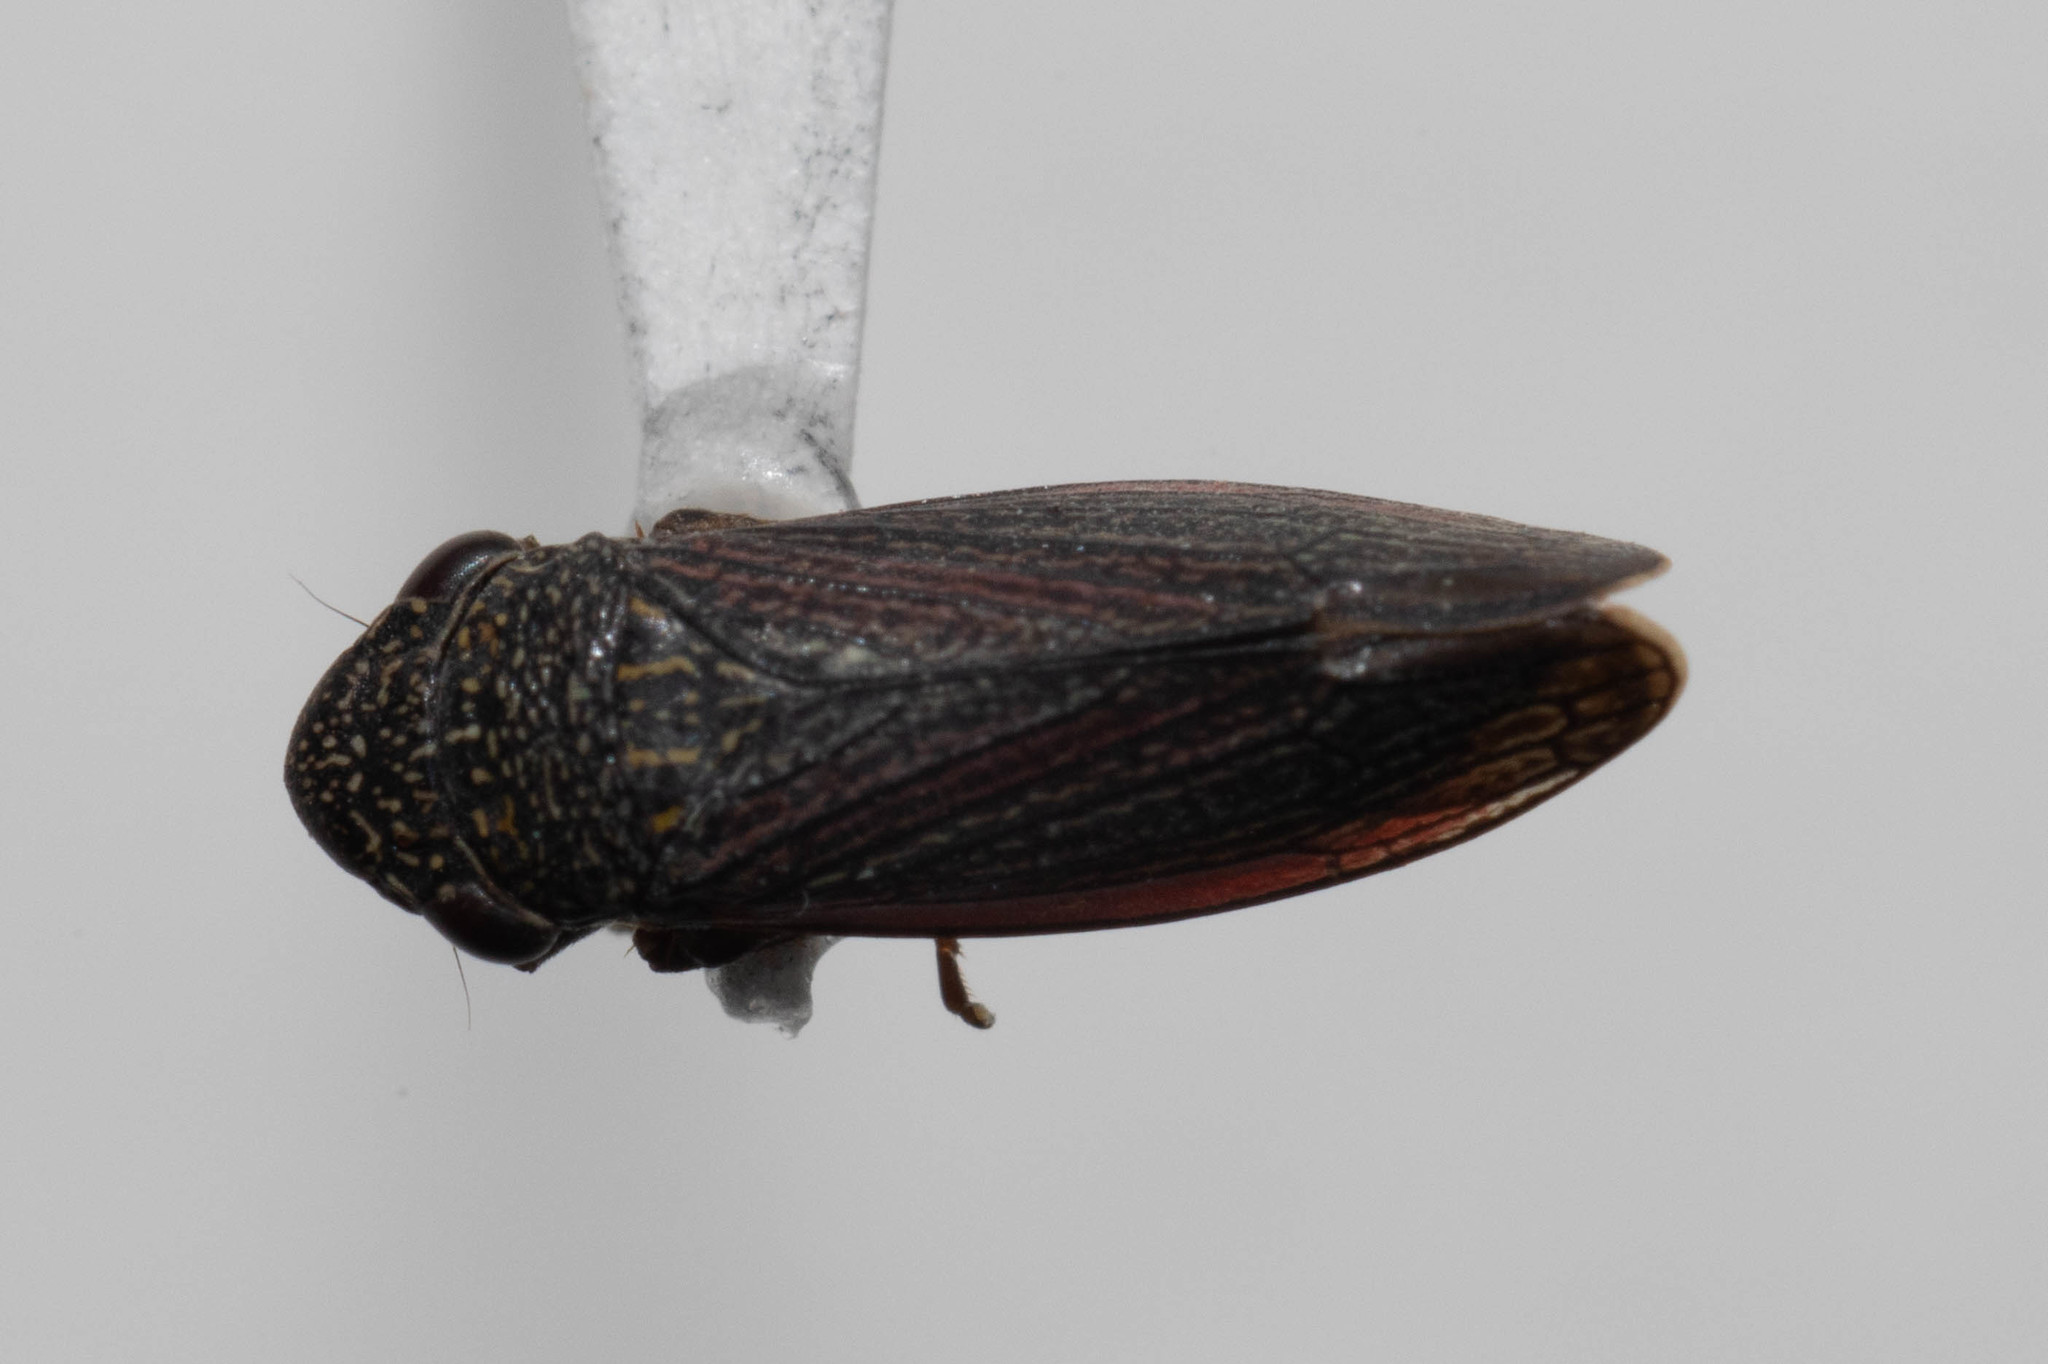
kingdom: Animalia
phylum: Arthropoda
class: Insecta
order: Hemiptera
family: Cicadellidae
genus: Cuerna
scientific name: Cuerna striata
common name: Striped leafhopper
